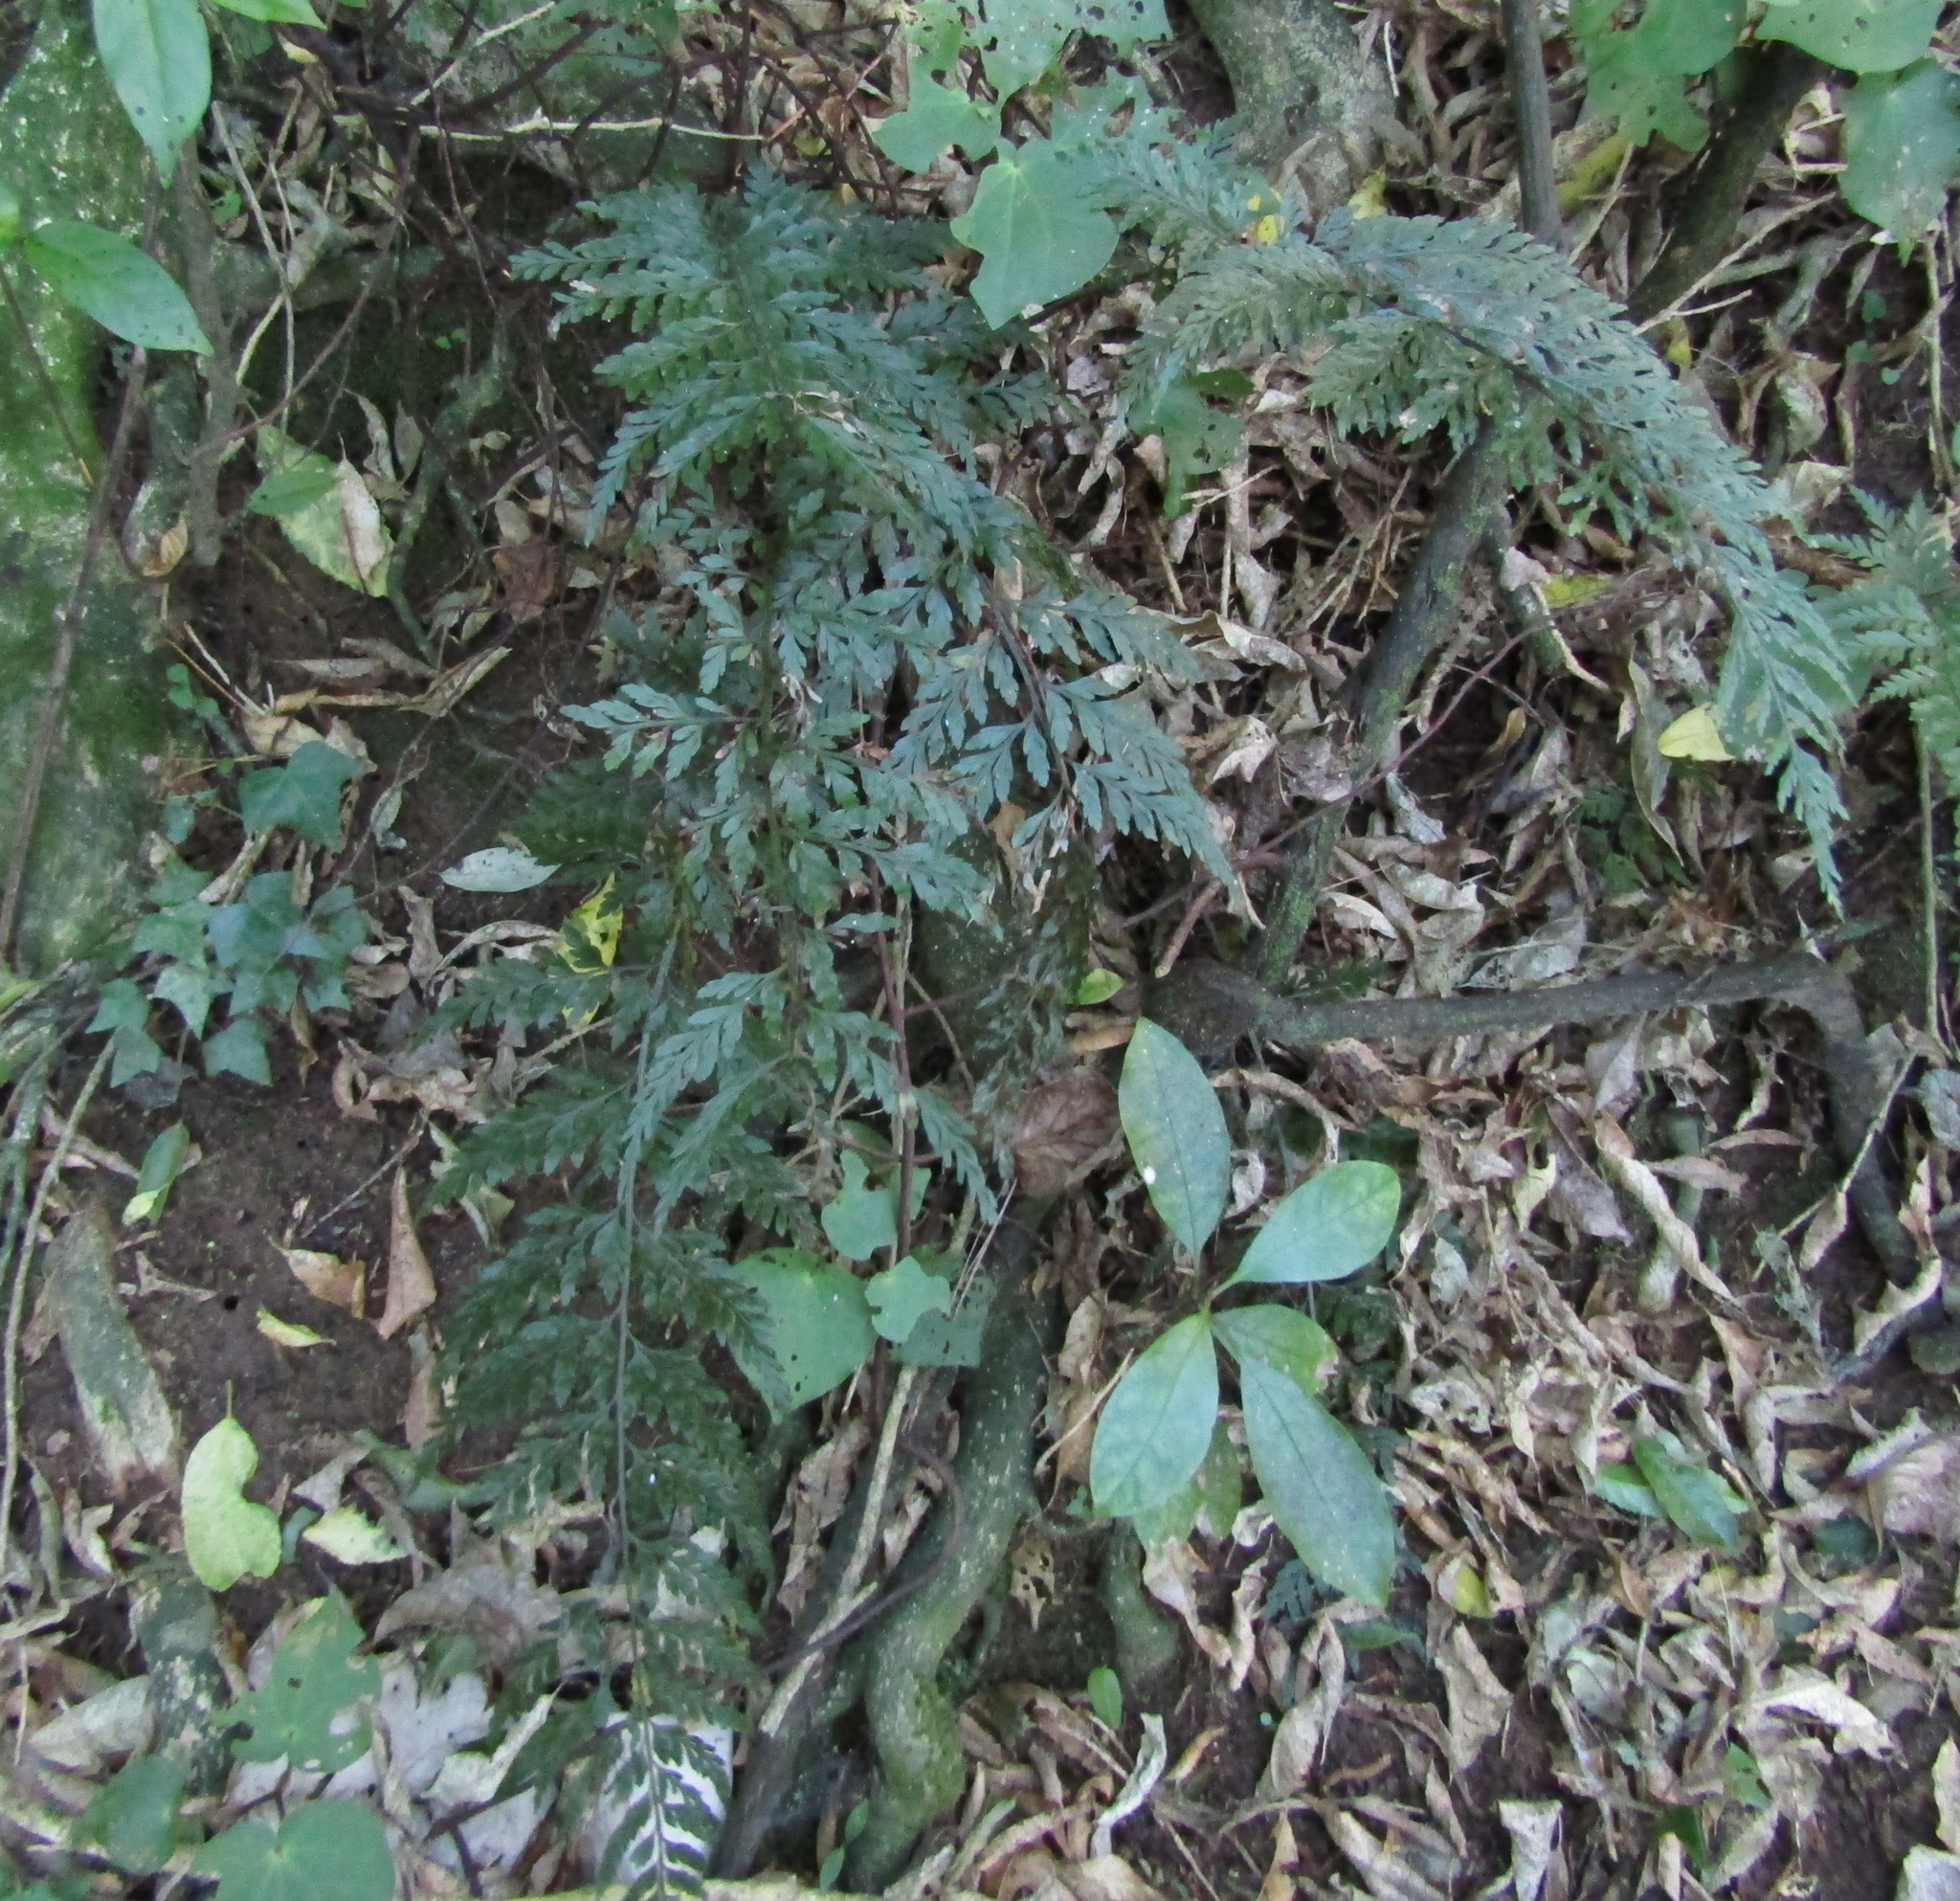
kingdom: Plantae
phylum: Tracheophyta
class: Polypodiopsida
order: Polypodiales
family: Aspleniaceae
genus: Asplenium
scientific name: Asplenium
